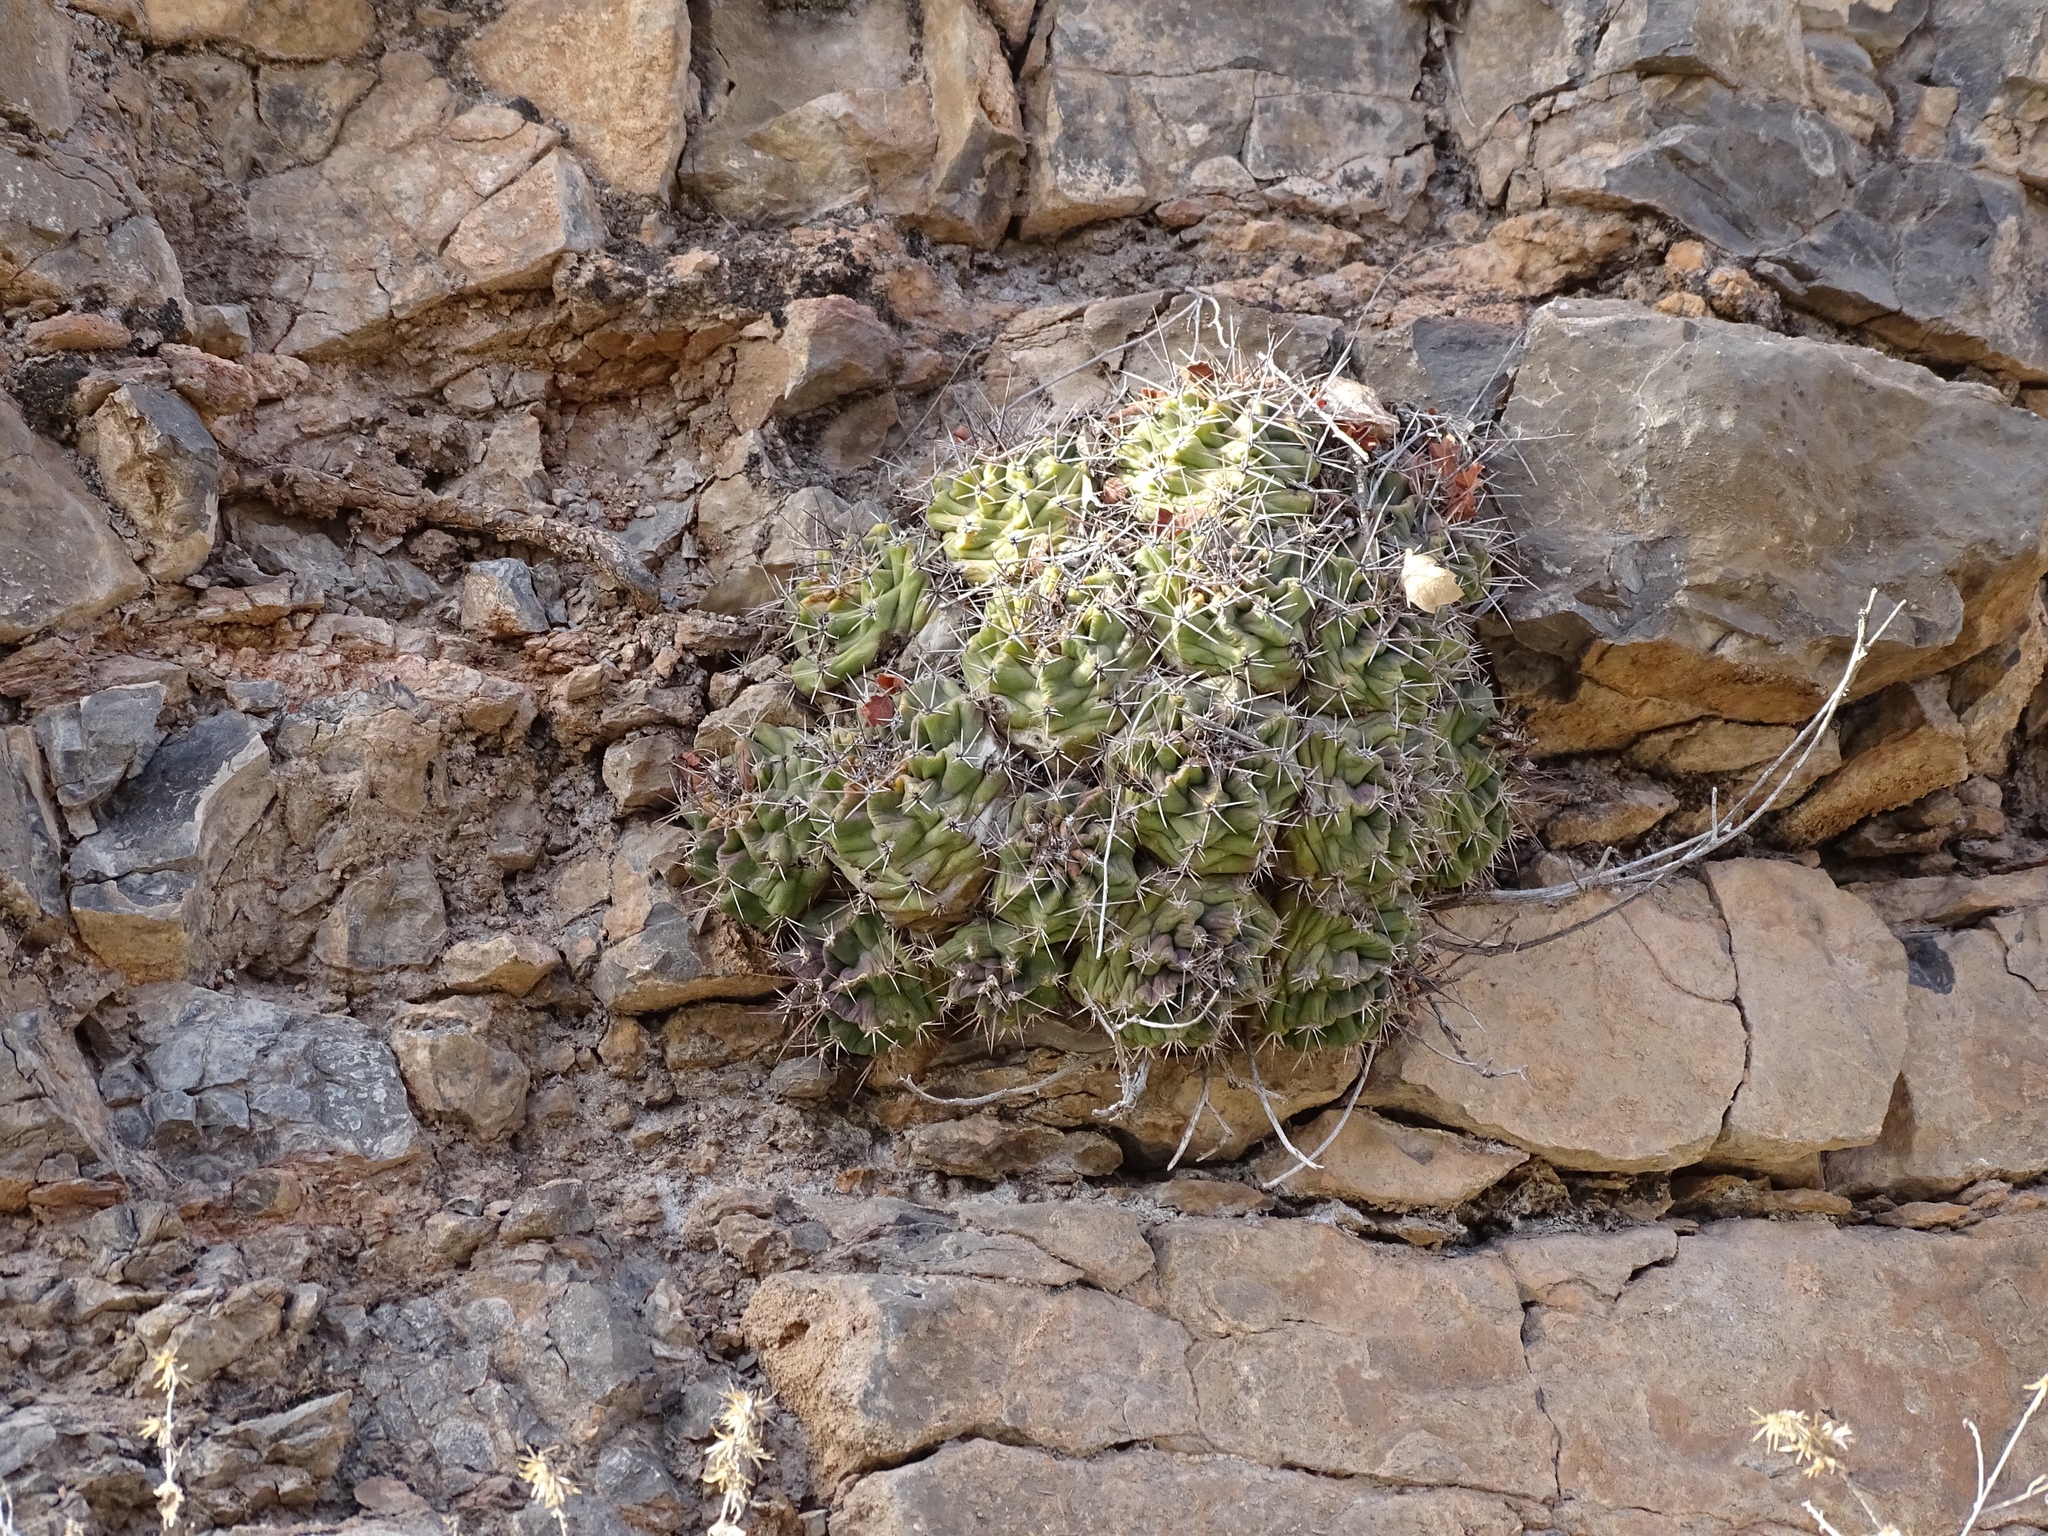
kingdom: Plantae
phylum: Tracheophyta
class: Magnoliopsida
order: Caryophyllales
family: Cactaceae
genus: Echinocereus
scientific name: Echinocereus coccineus
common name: Scarlet hedgehog cactus
